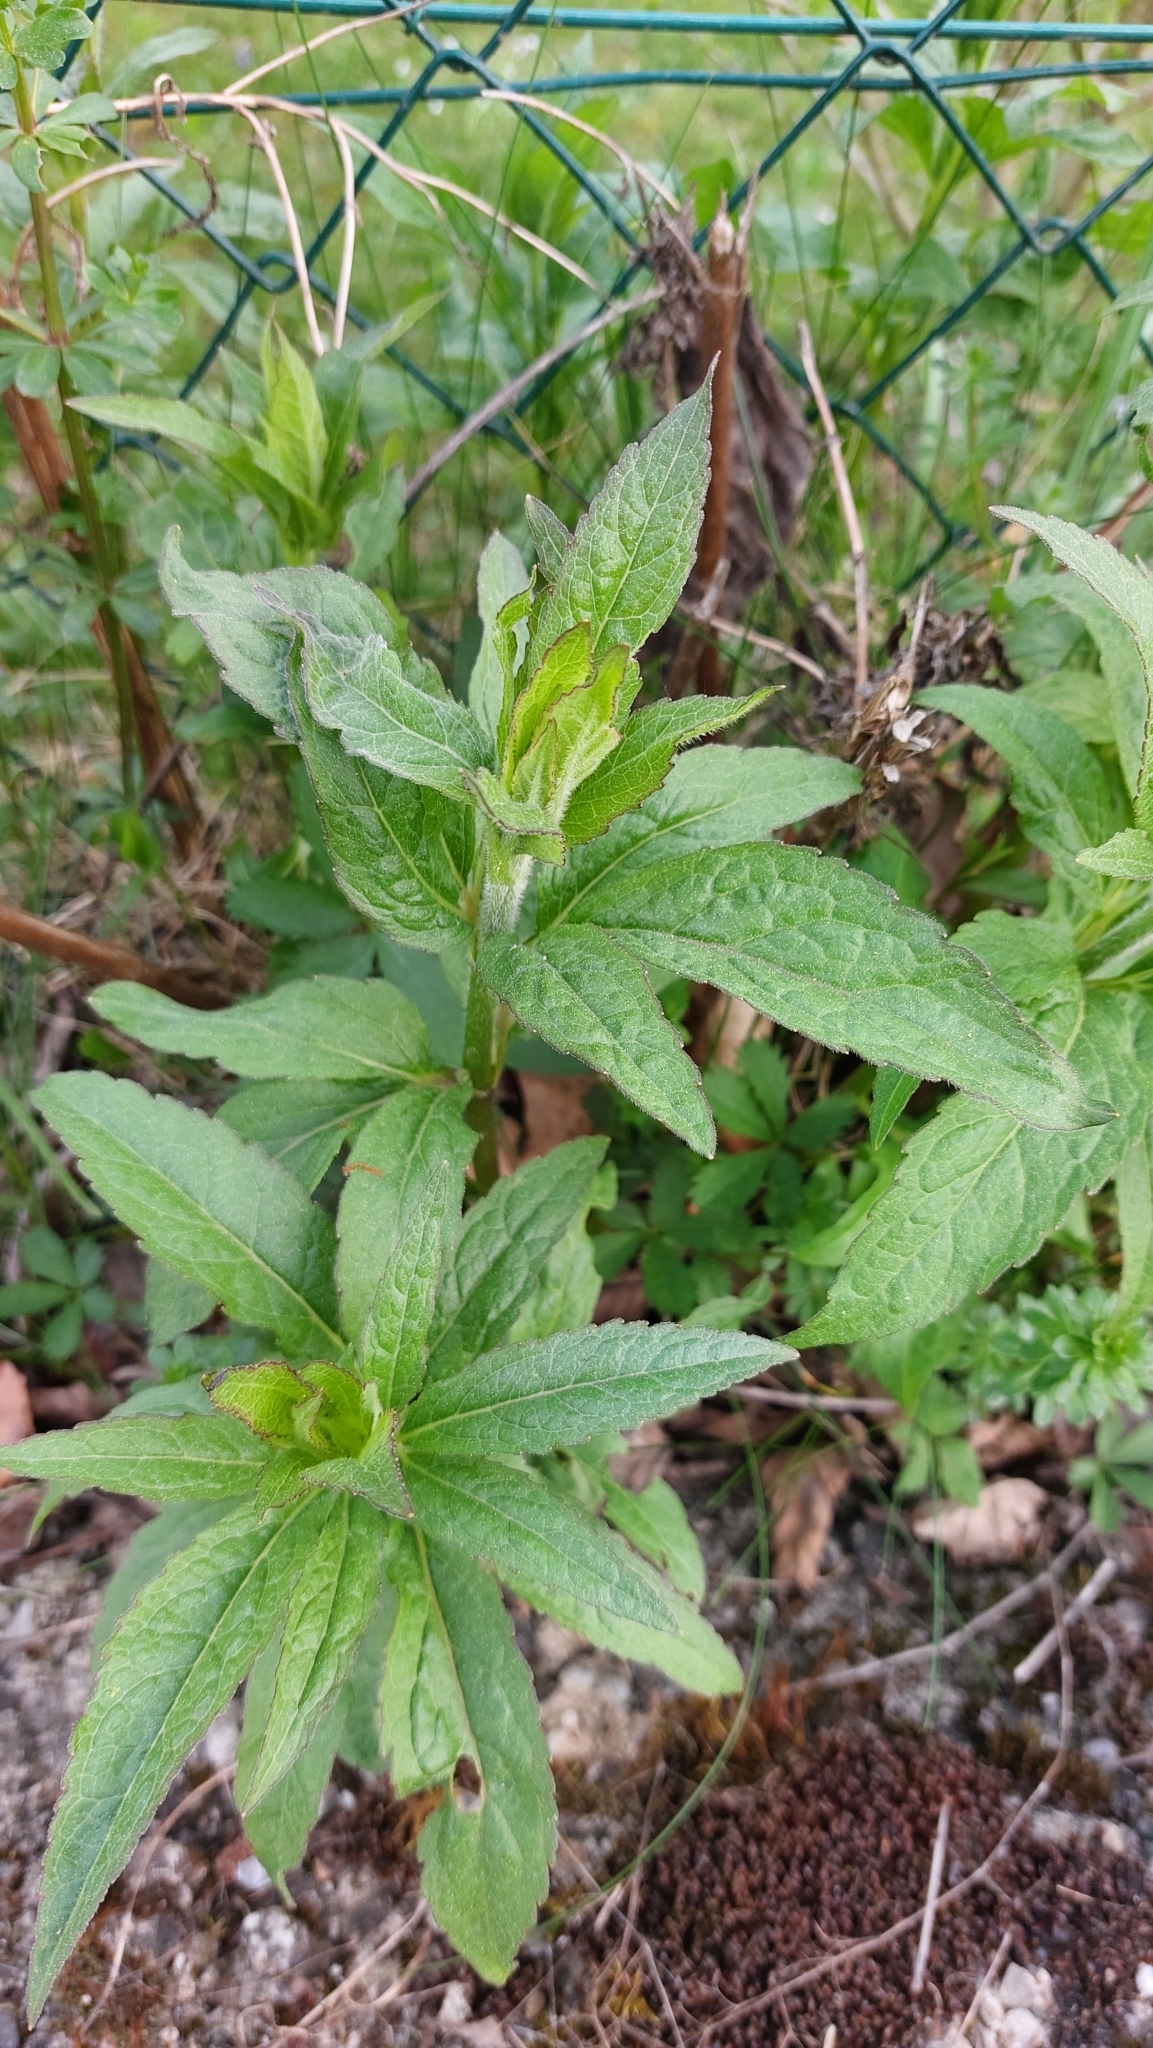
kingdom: Plantae
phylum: Tracheophyta
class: Magnoliopsida
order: Asterales
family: Asteraceae
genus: Eupatorium
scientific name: Eupatorium cannabinum
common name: Hemp-agrimony
